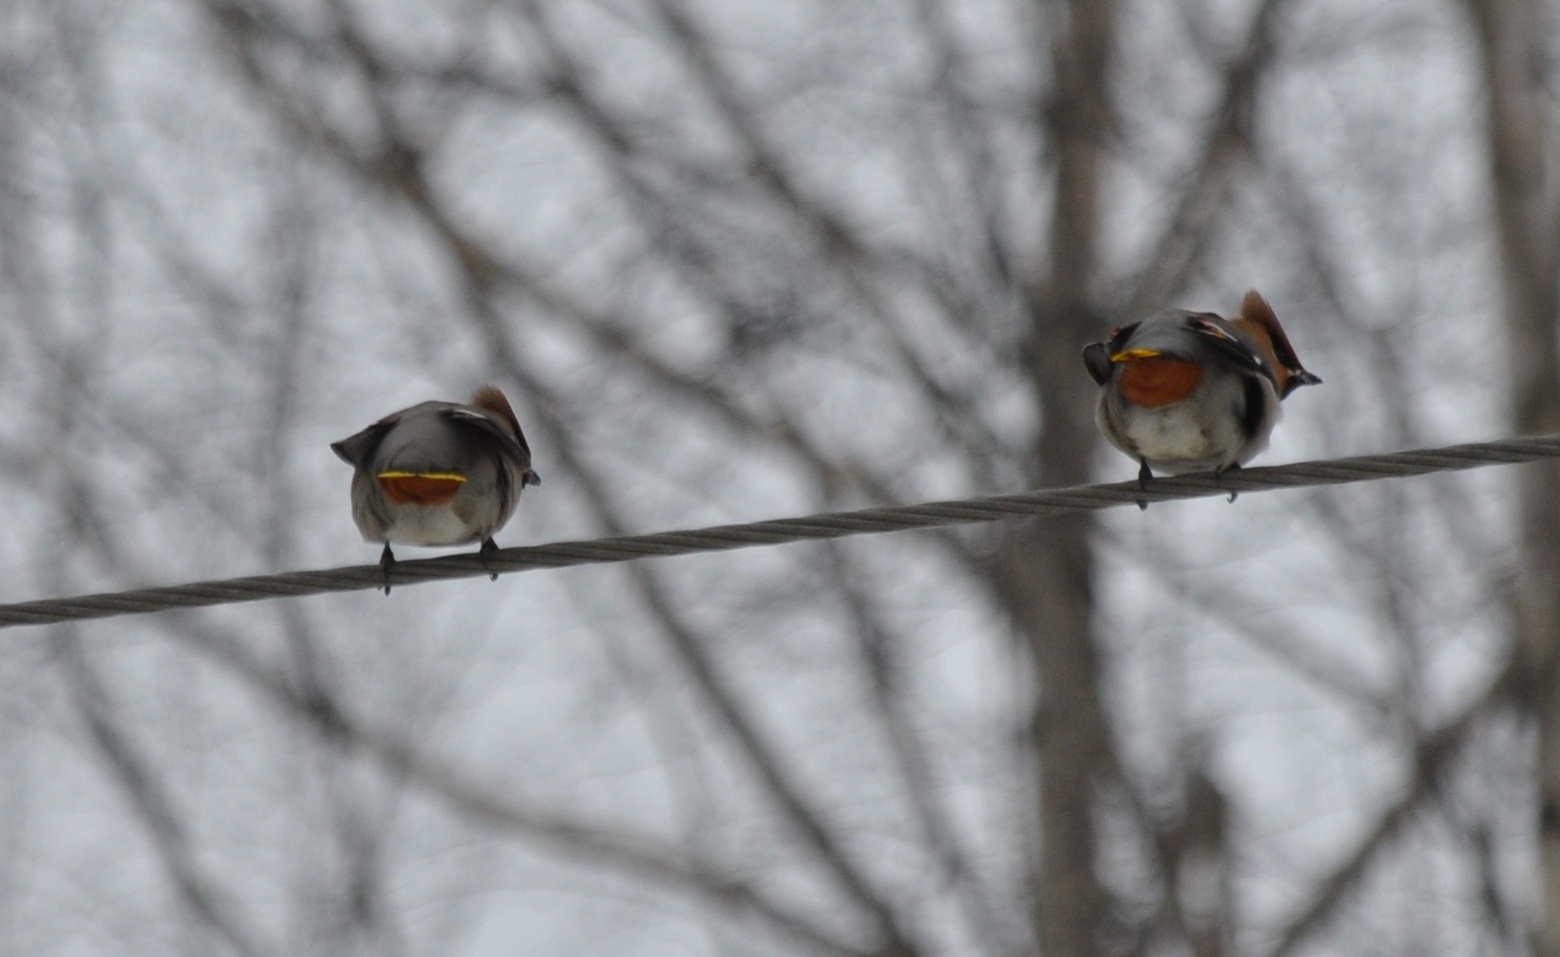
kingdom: Animalia
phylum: Chordata
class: Aves
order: Passeriformes
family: Bombycillidae
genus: Bombycilla
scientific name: Bombycilla garrulus
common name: Bohemian waxwing
